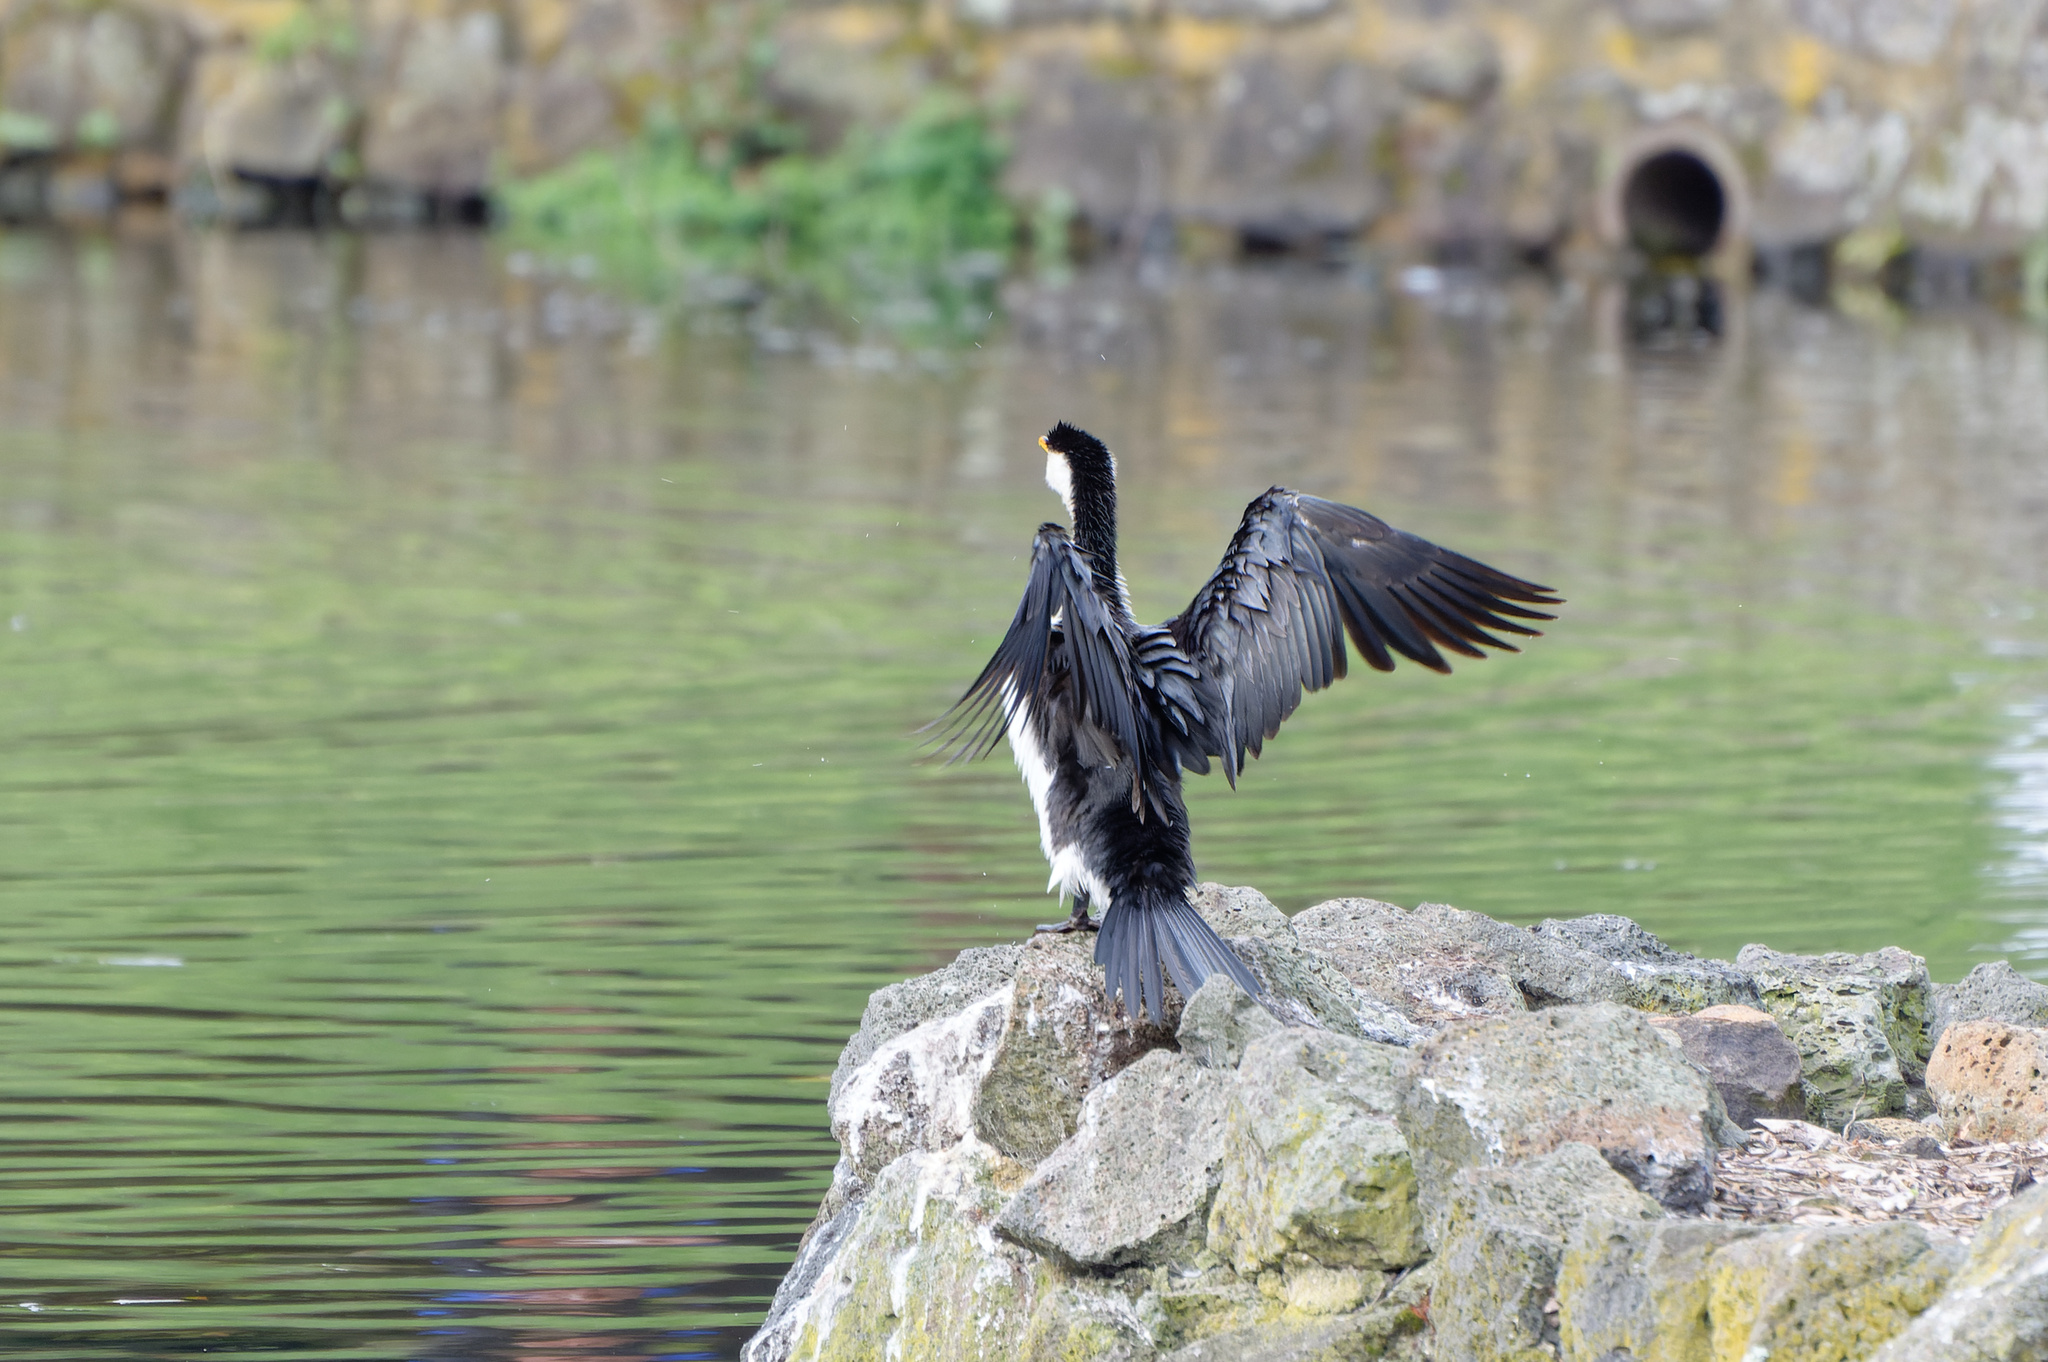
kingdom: Animalia
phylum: Chordata
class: Aves
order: Suliformes
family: Phalacrocoracidae
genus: Microcarbo
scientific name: Microcarbo melanoleucos
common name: Little pied cormorant
